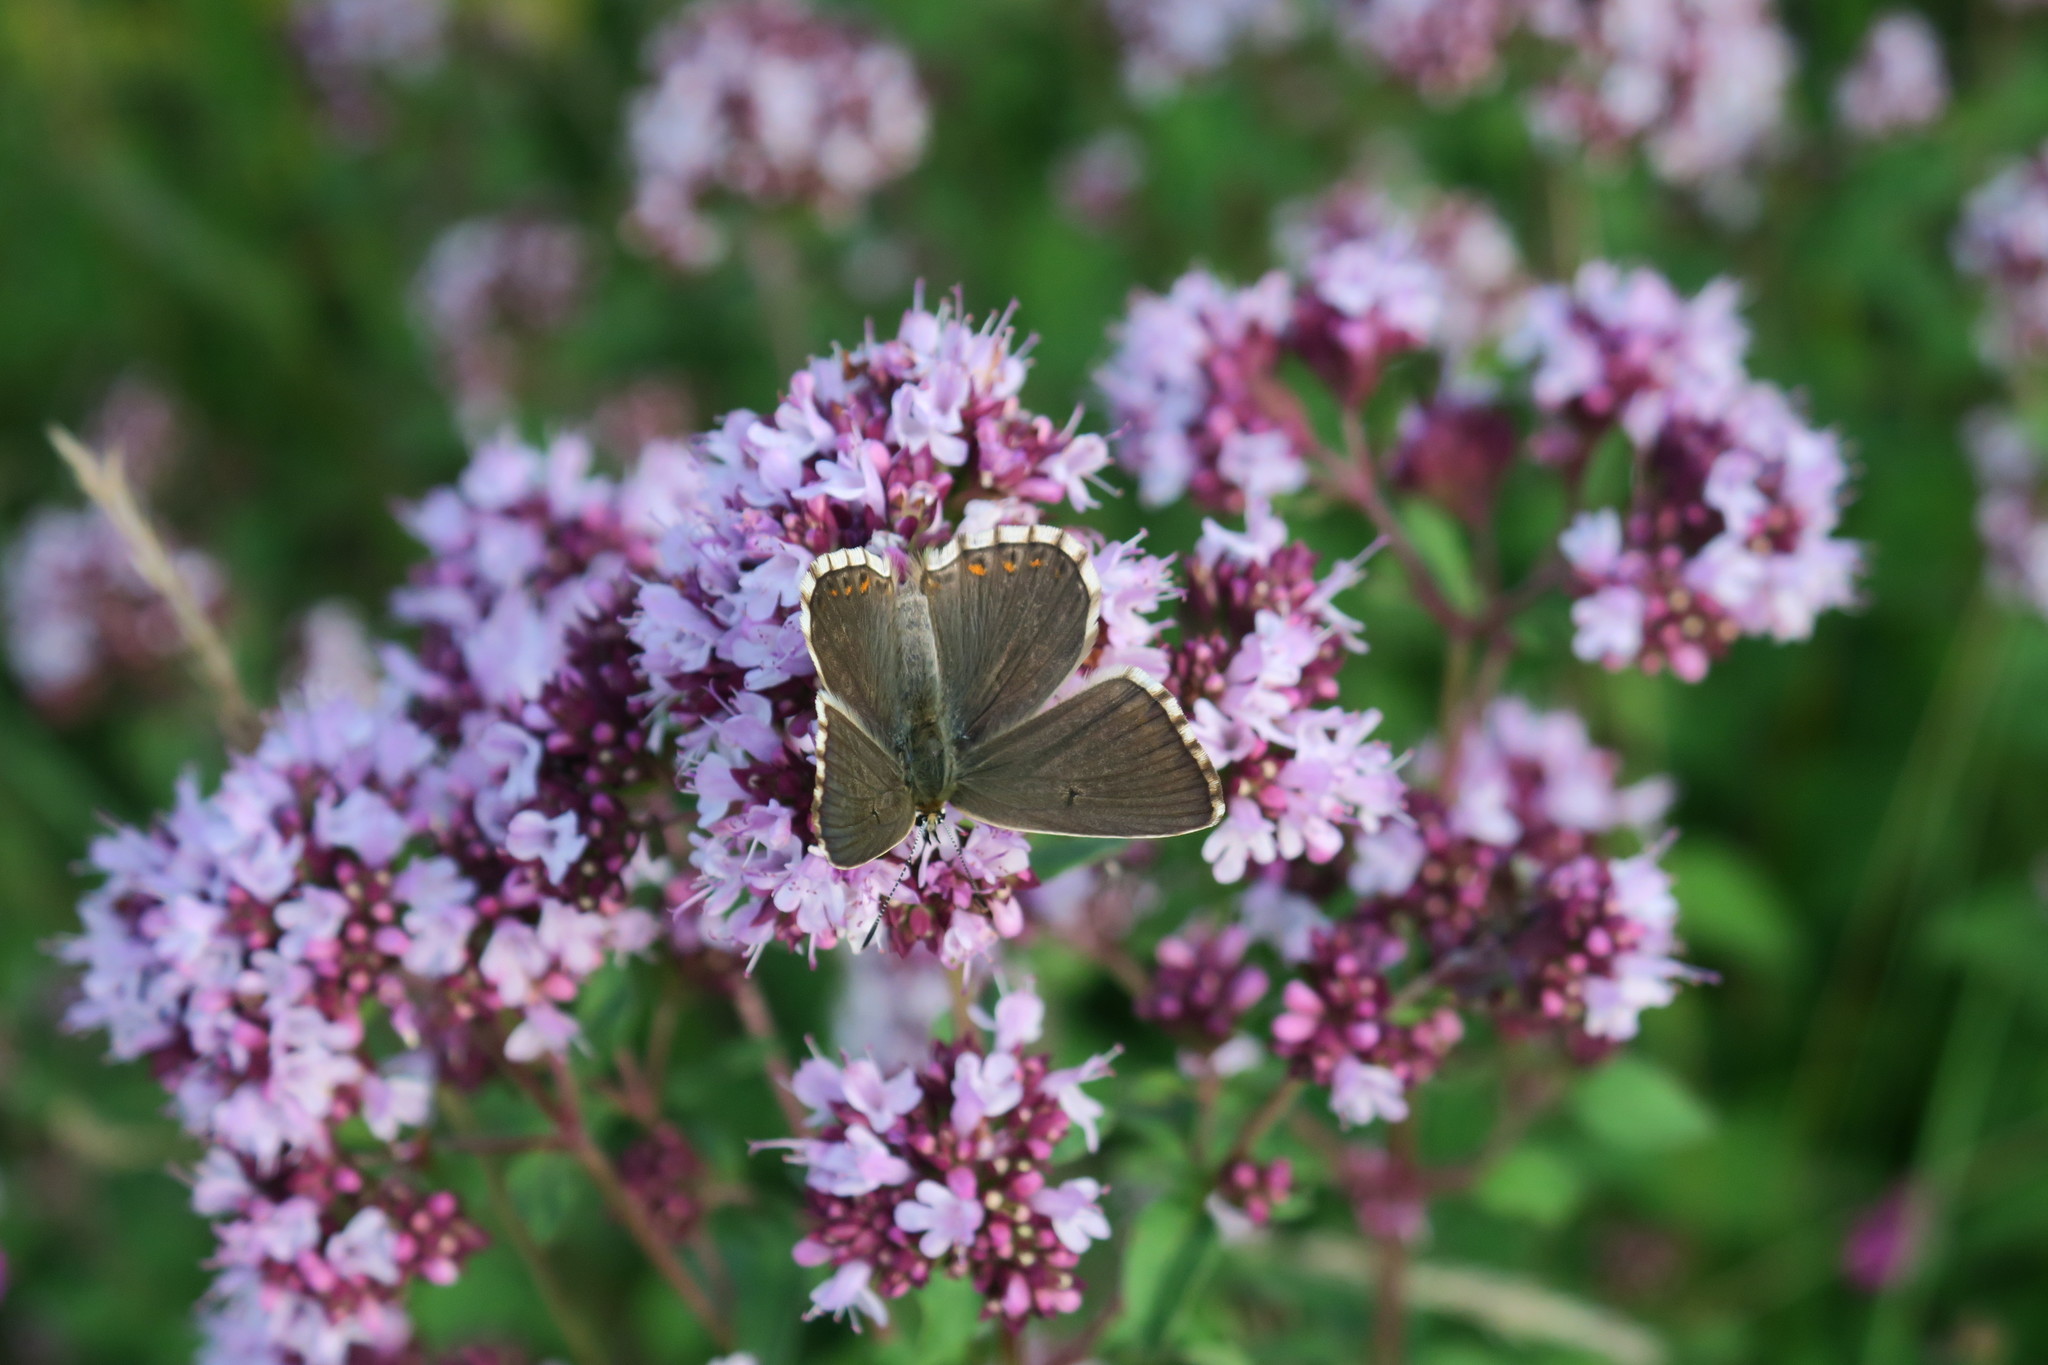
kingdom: Animalia
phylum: Arthropoda
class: Insecta
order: Lepidoptera
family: Lycaenidae
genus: Lysandra
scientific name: Lysandra coridon
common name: Chalkhill blue
